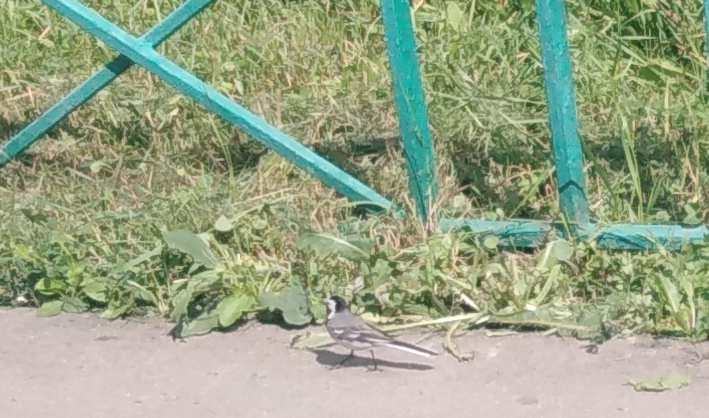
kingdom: Animalia
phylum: Chordata
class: Aves
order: Passeriformes
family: Motacillidae
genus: Motacilla
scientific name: Motacilla alba
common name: White wagtail
